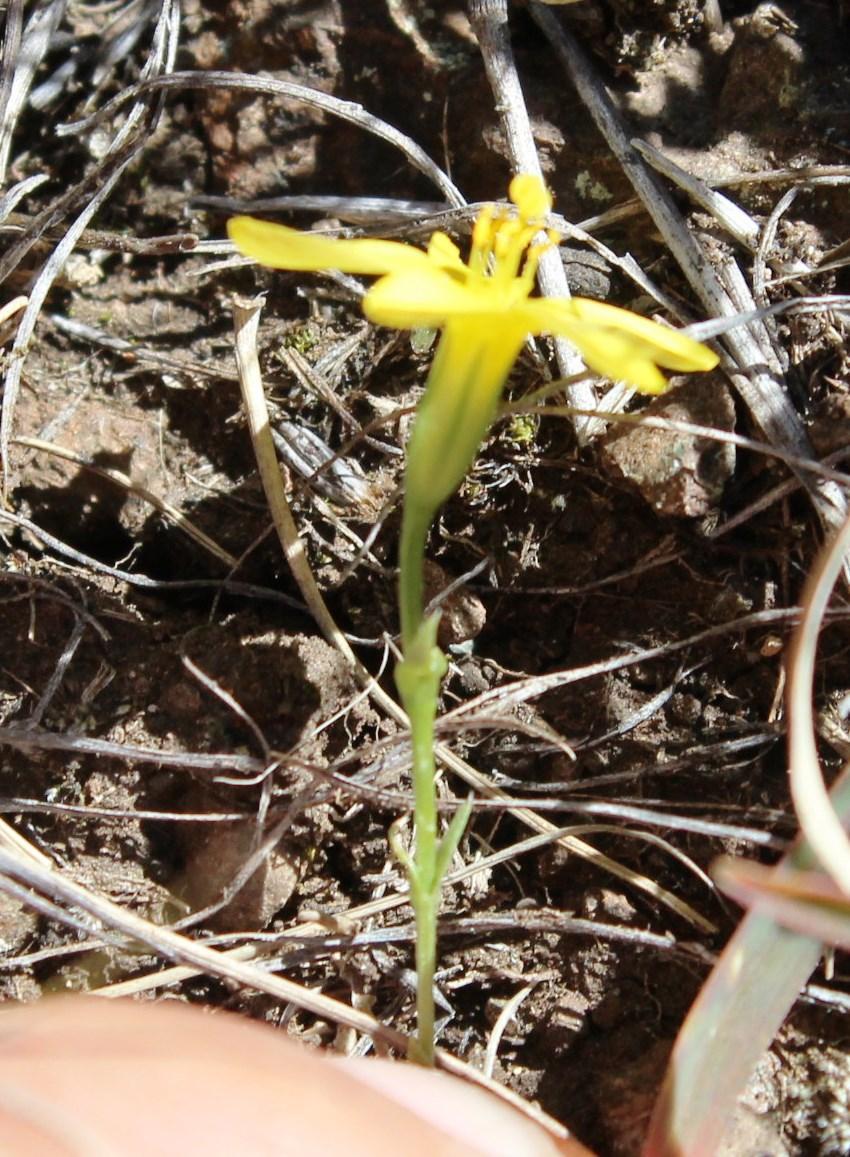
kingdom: Plantae
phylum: Tracheophyta
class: Magnoliopsida
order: Gentianales
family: Gentianaceae
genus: Sebaea
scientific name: Sebaea natalensis
